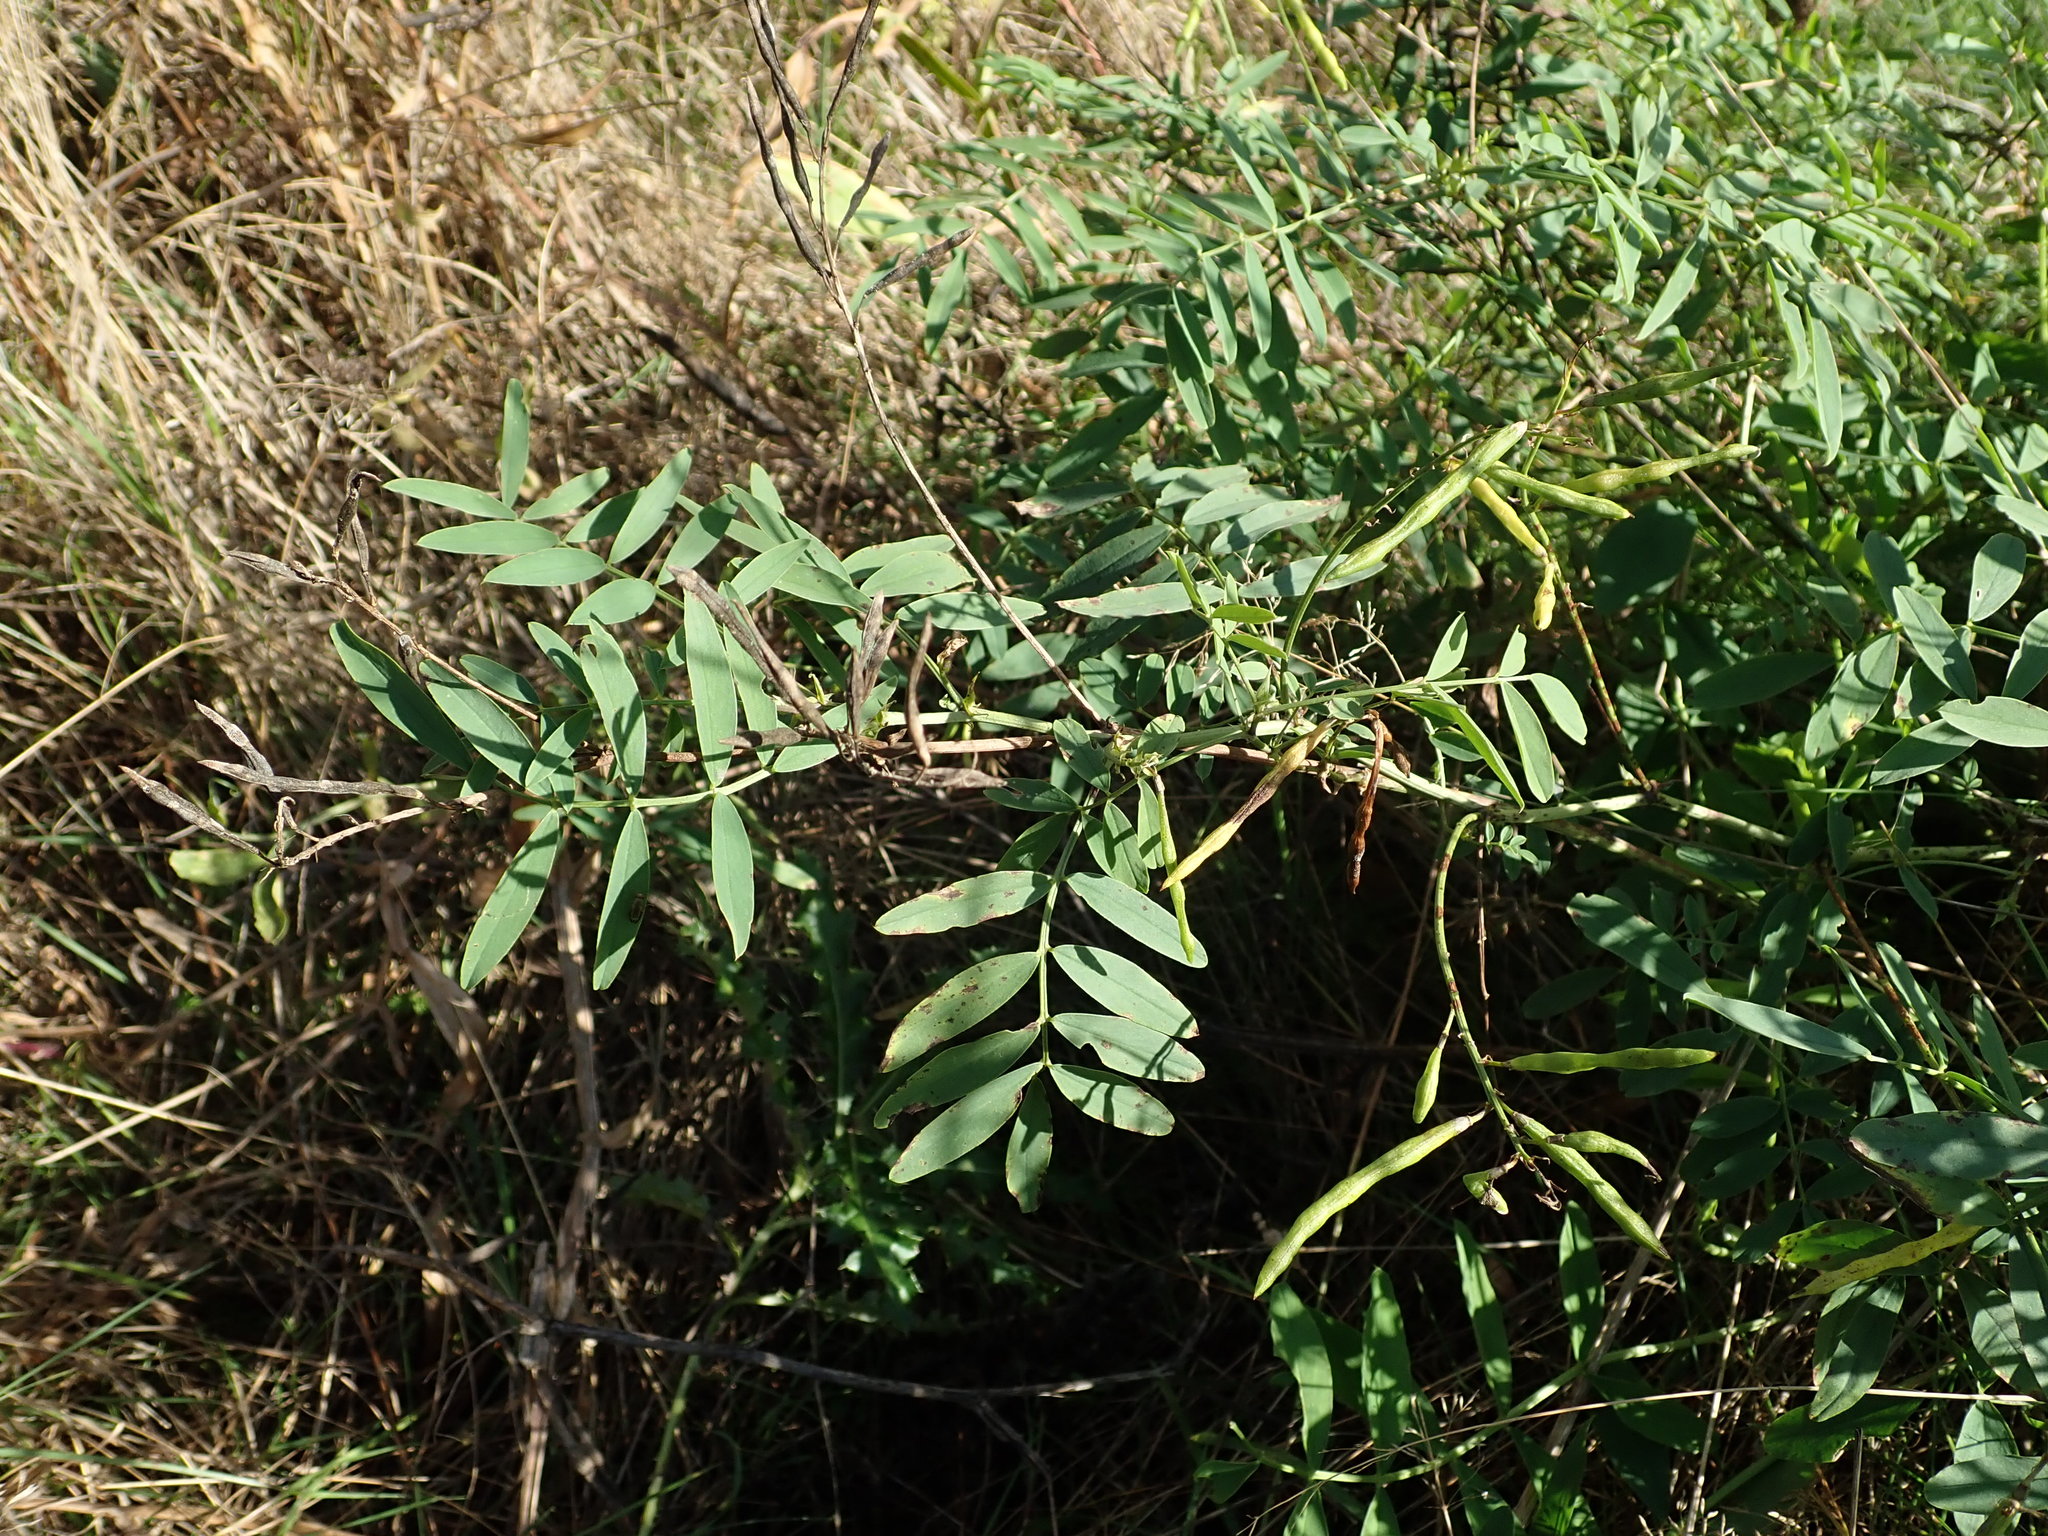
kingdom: Plantae
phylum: Tracheophyta
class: Magnoliopsida
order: Fabales
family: Fabaceae
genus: Galega
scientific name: Galega officinalis
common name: Goat's-rue
